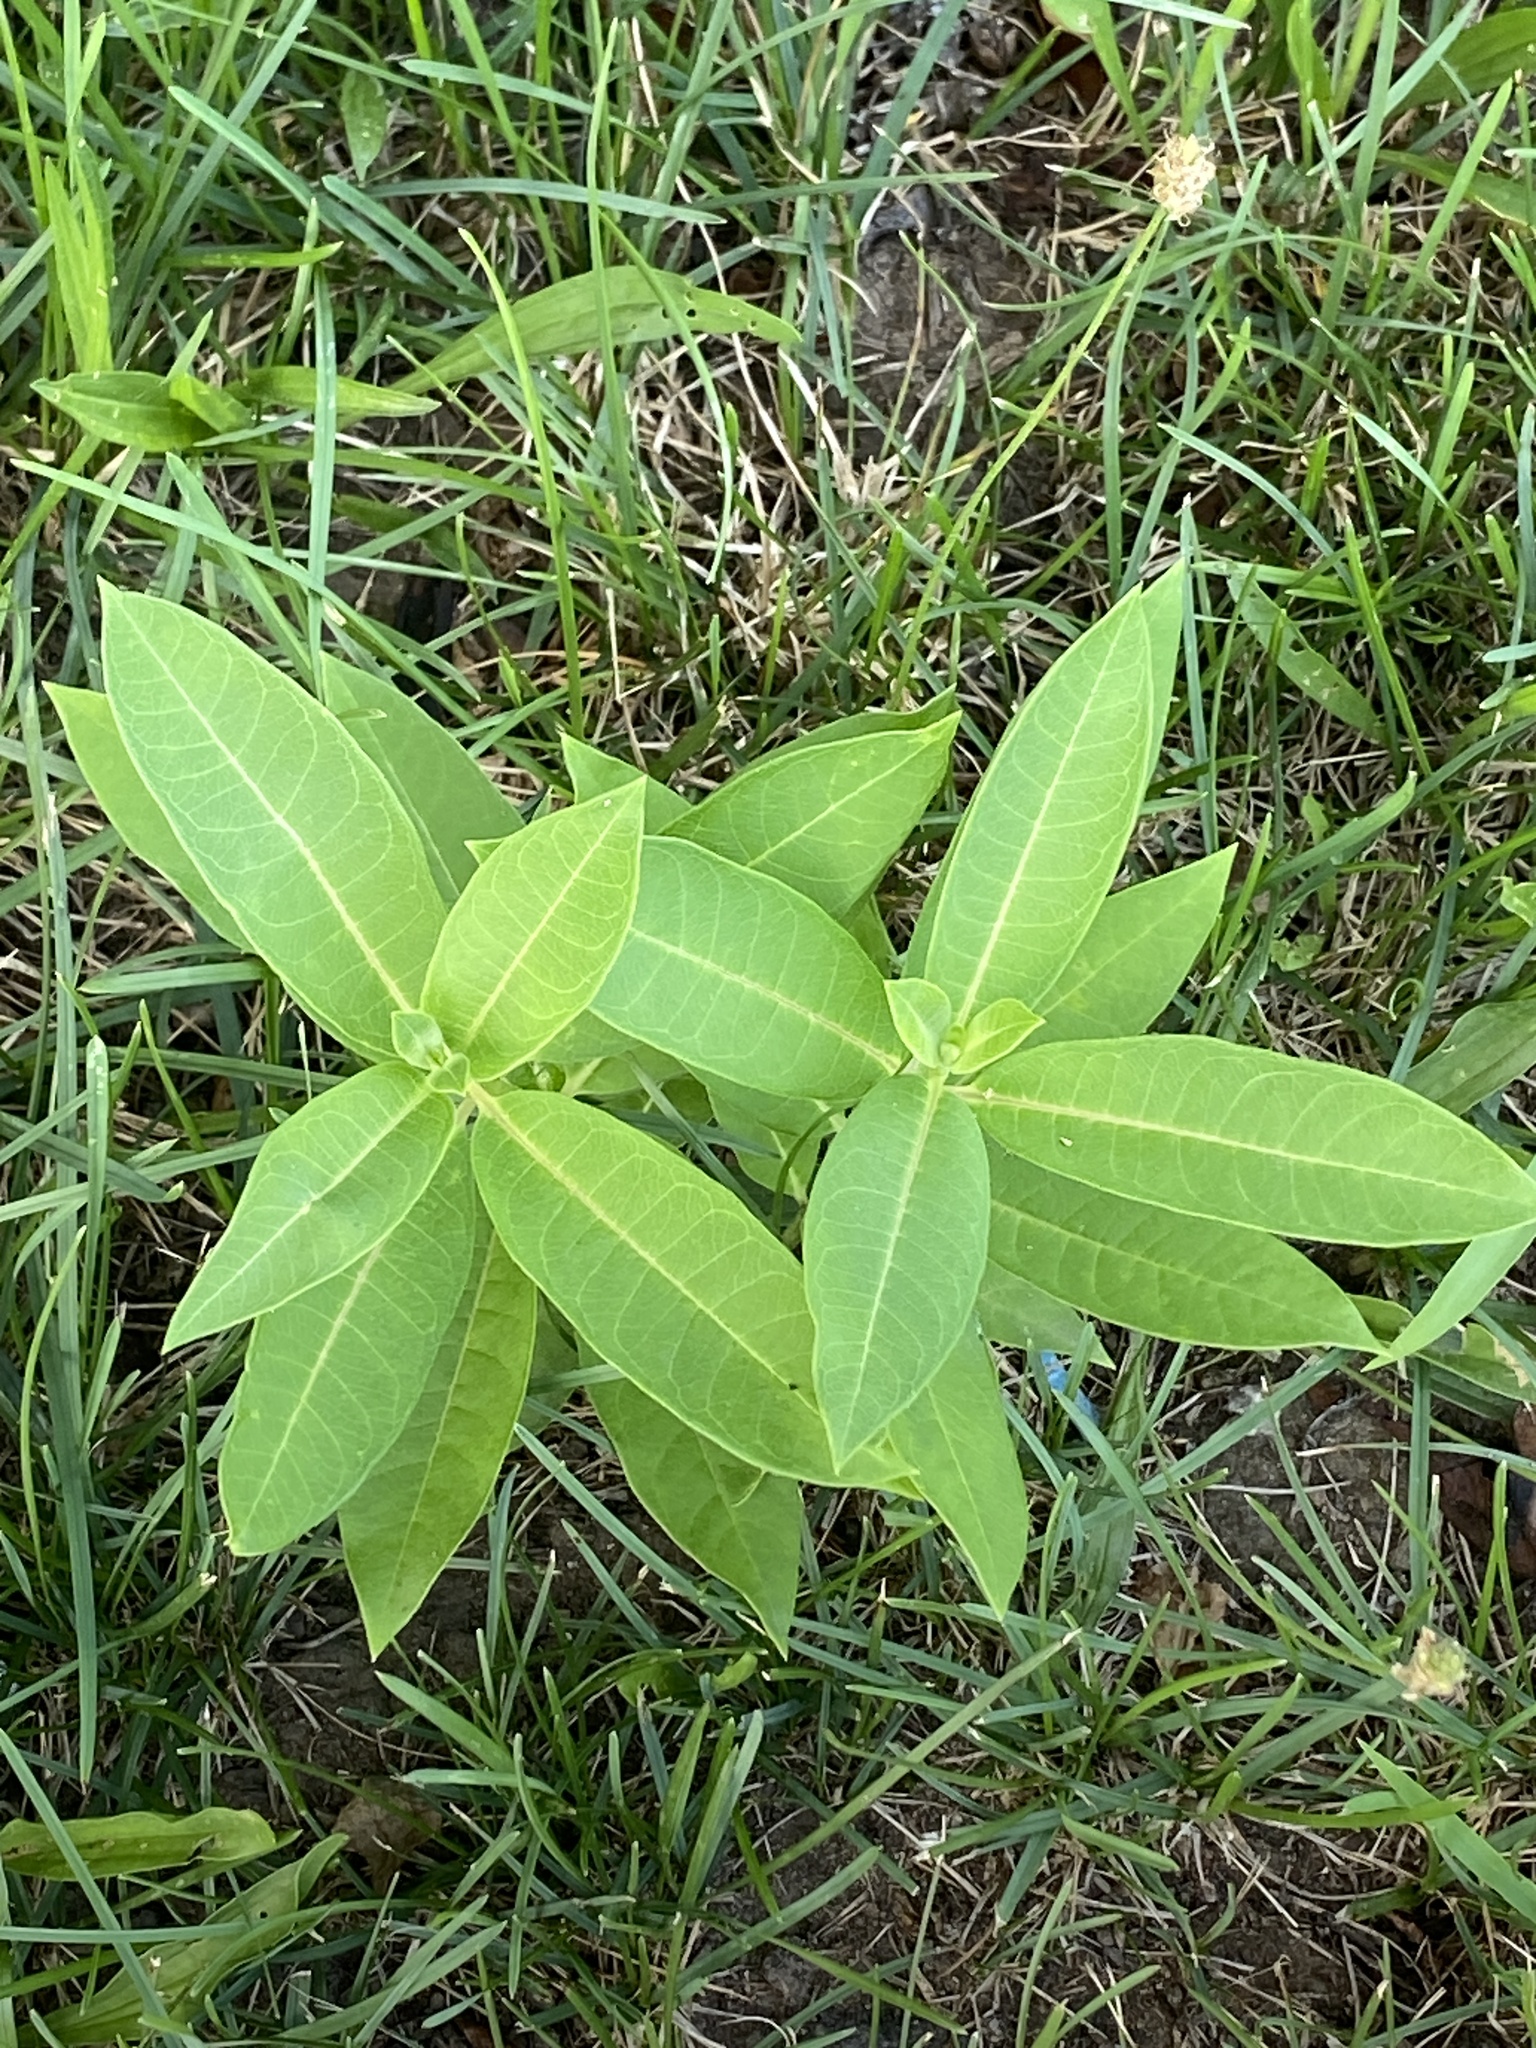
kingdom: Plantae
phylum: Tracheophyta
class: Magnoliopsida
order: Gentianales
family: Apocynaceae
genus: Asclepias
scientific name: Asclepias syriaca
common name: Common milkweed
